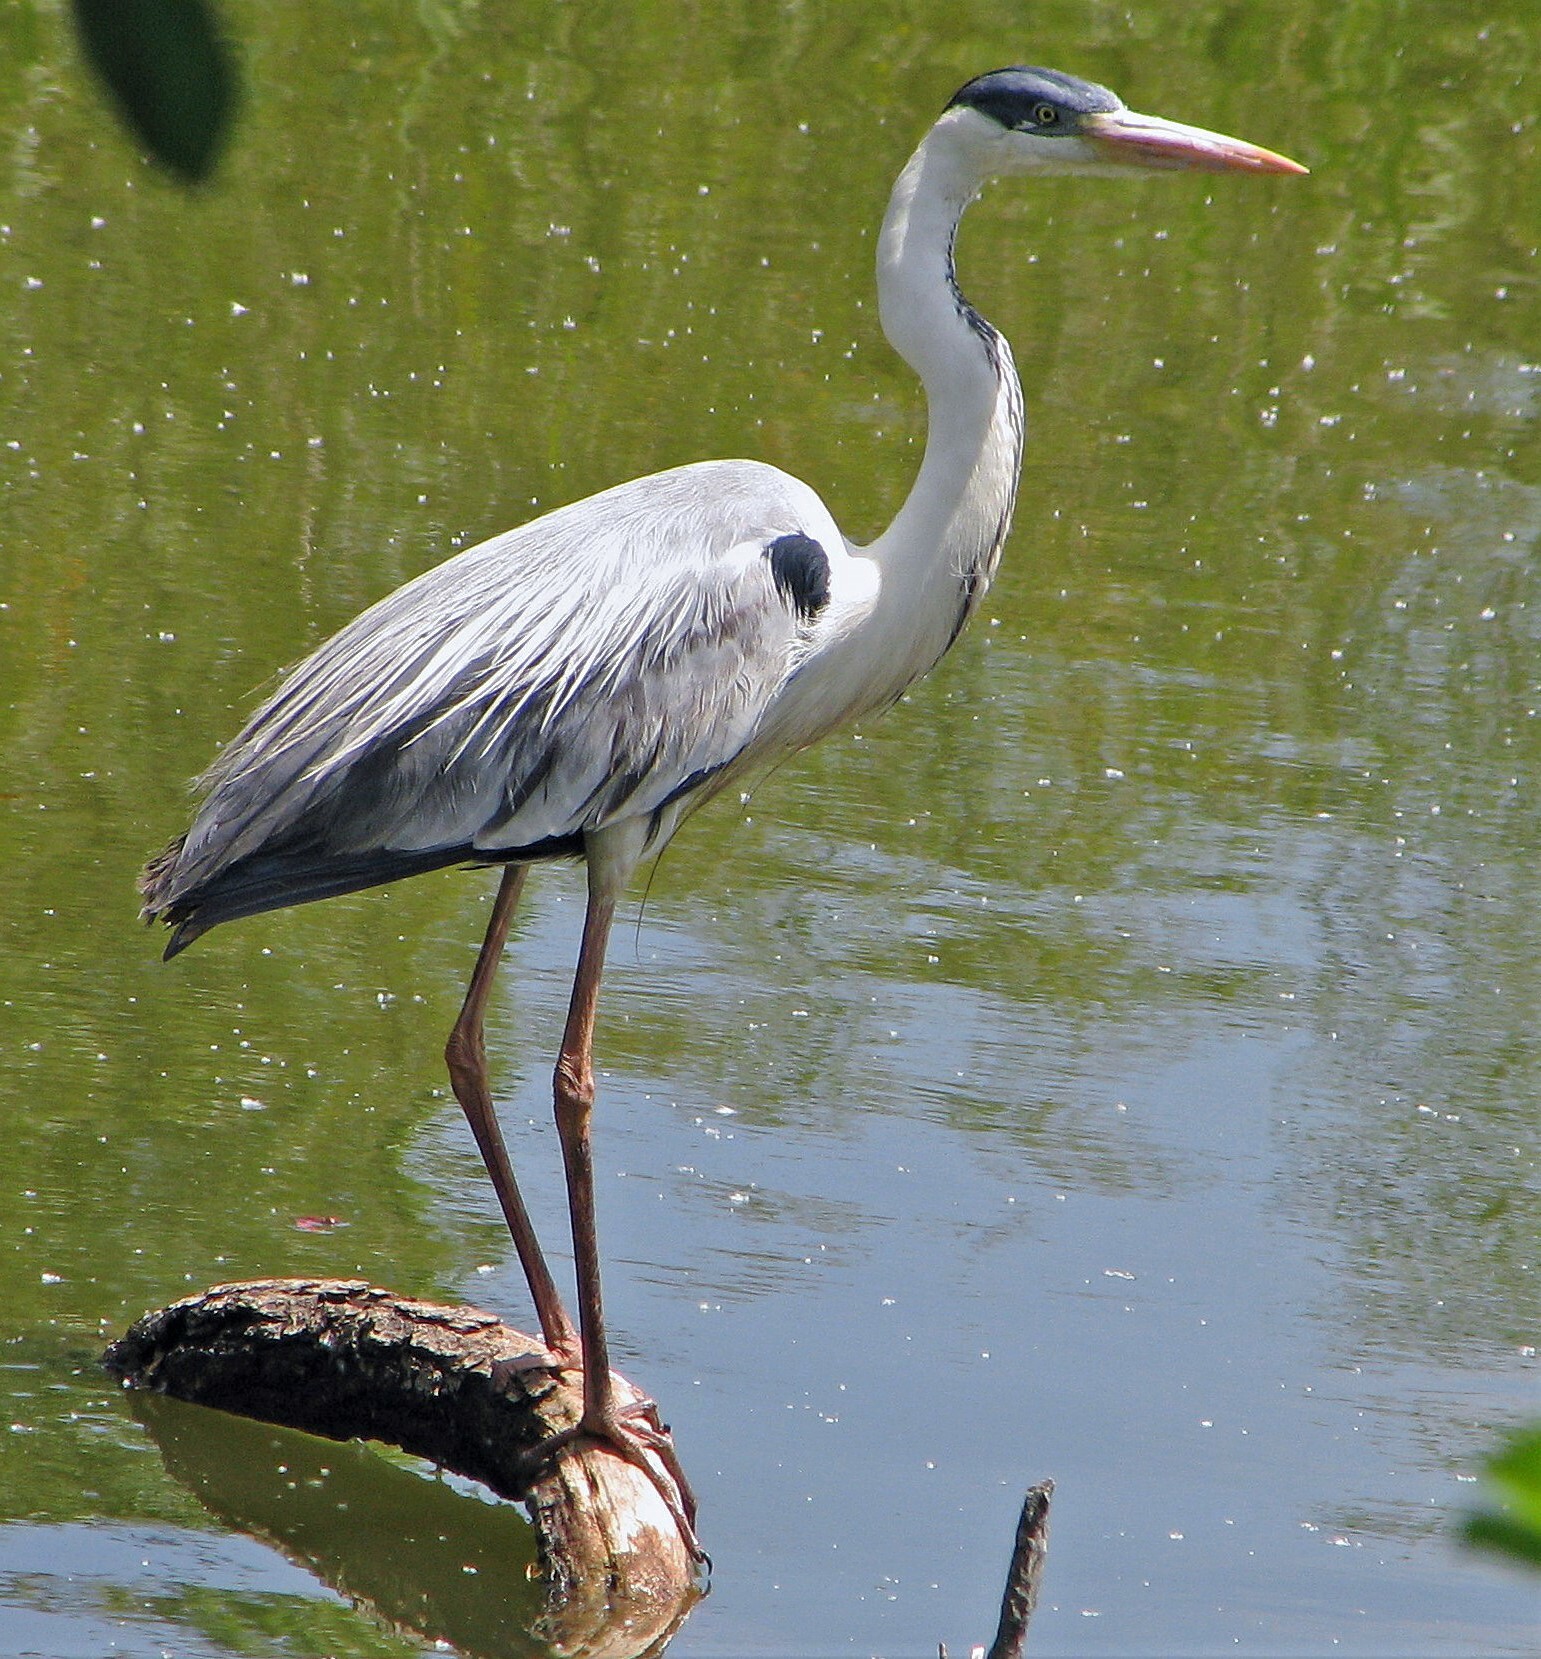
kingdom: Animalia
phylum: Chordata
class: Aves
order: Pelecaniformes
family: Ardeidae
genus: Ardea
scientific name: Ardea cocoi
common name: Cocoi heron
